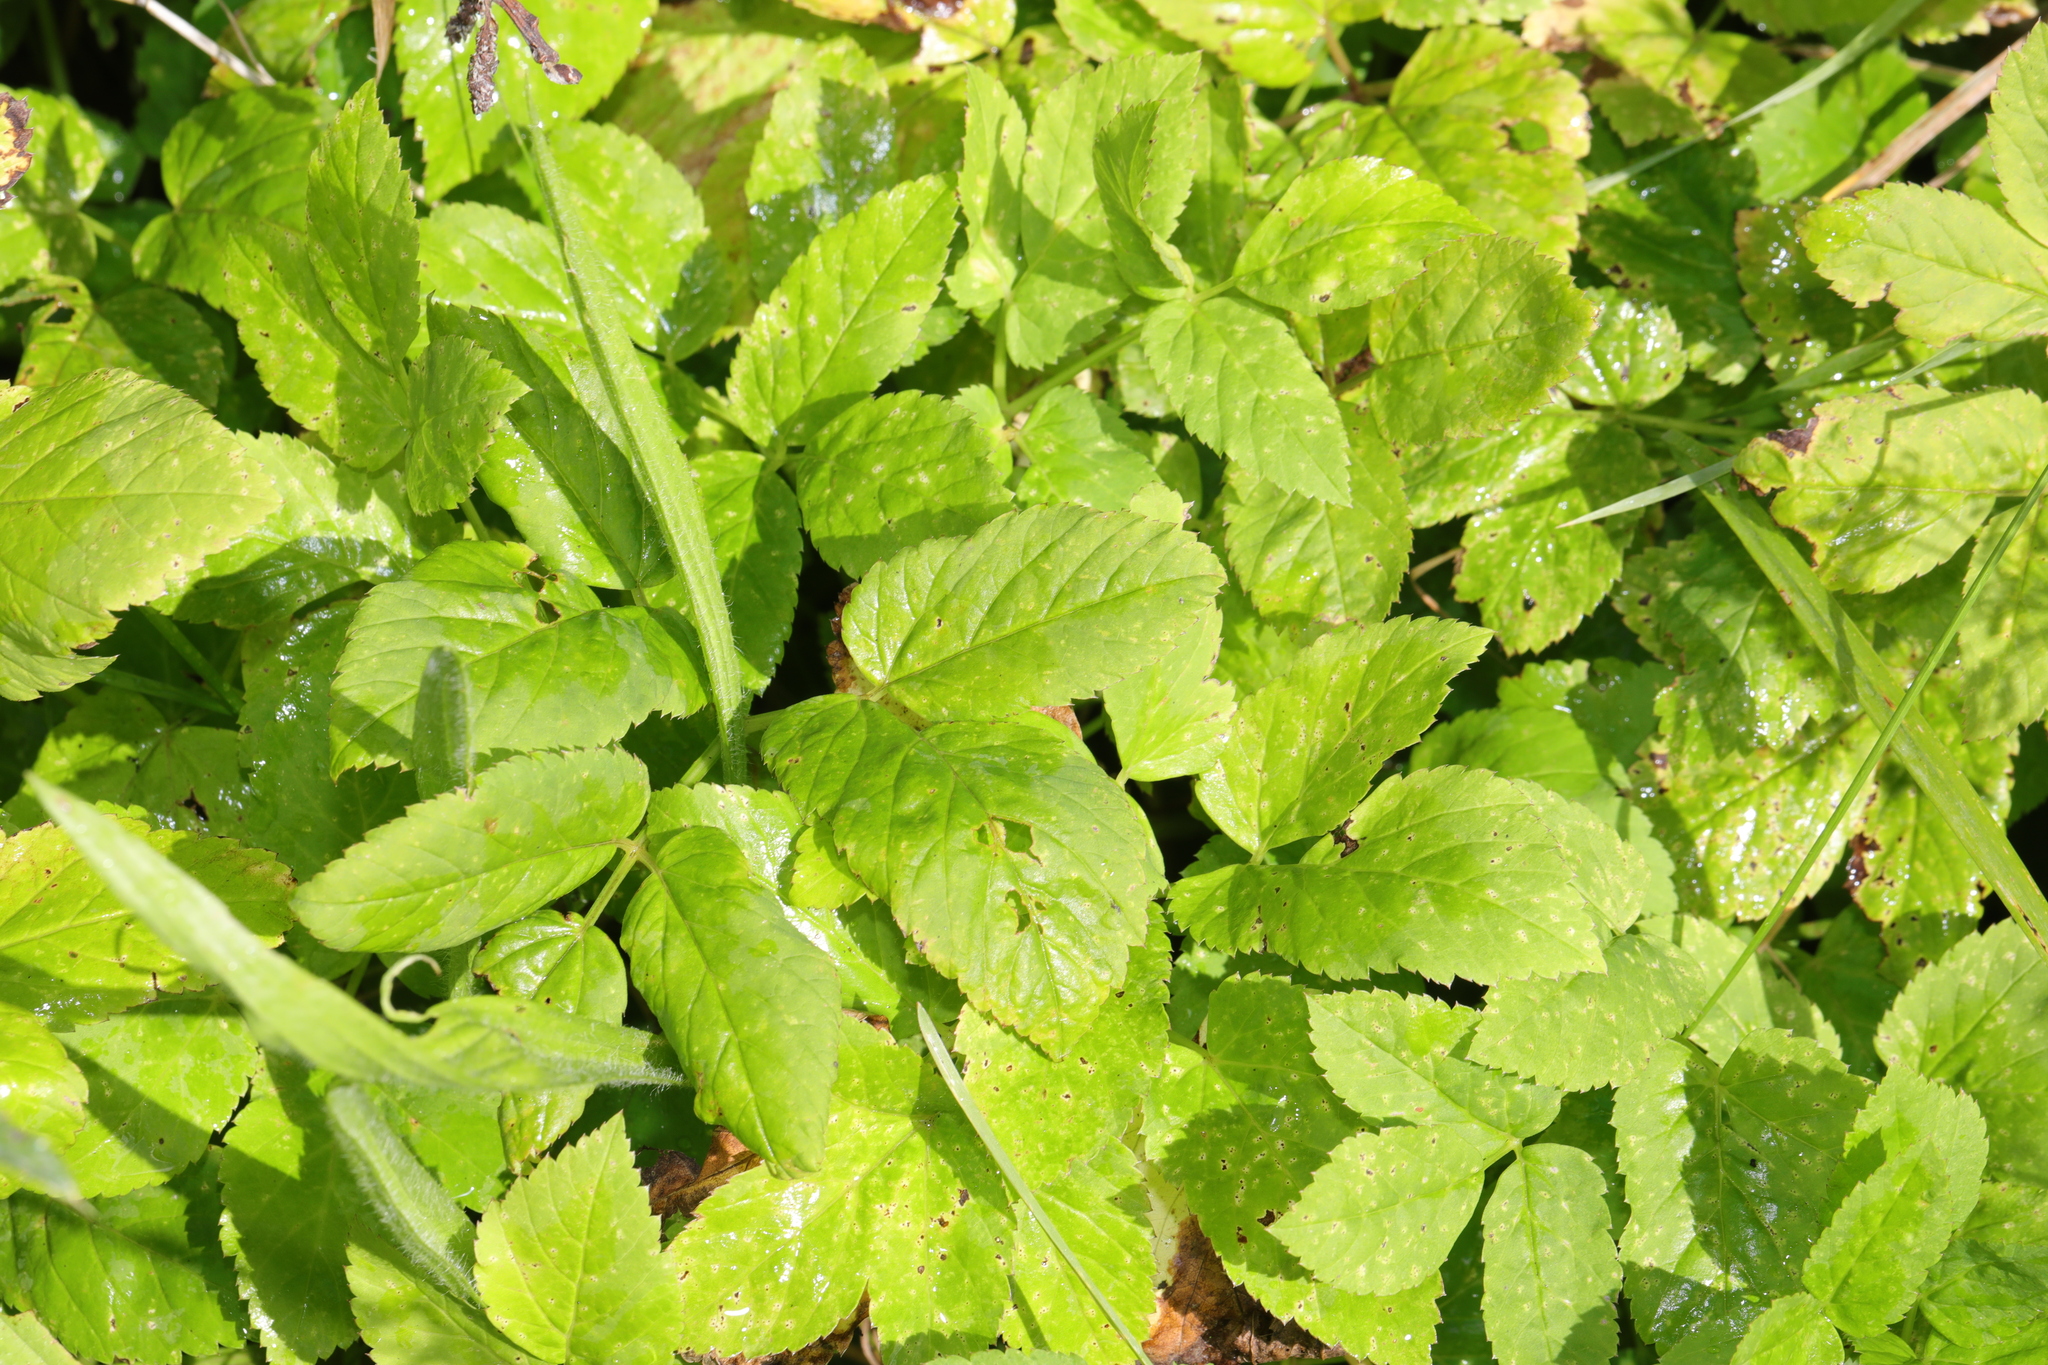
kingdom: Plantae
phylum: Tracheophyta
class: Magnoliopsida
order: Apiales
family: Apiaceae
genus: Aegopodium
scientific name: Aegopodium podagraria
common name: Ground-elder
